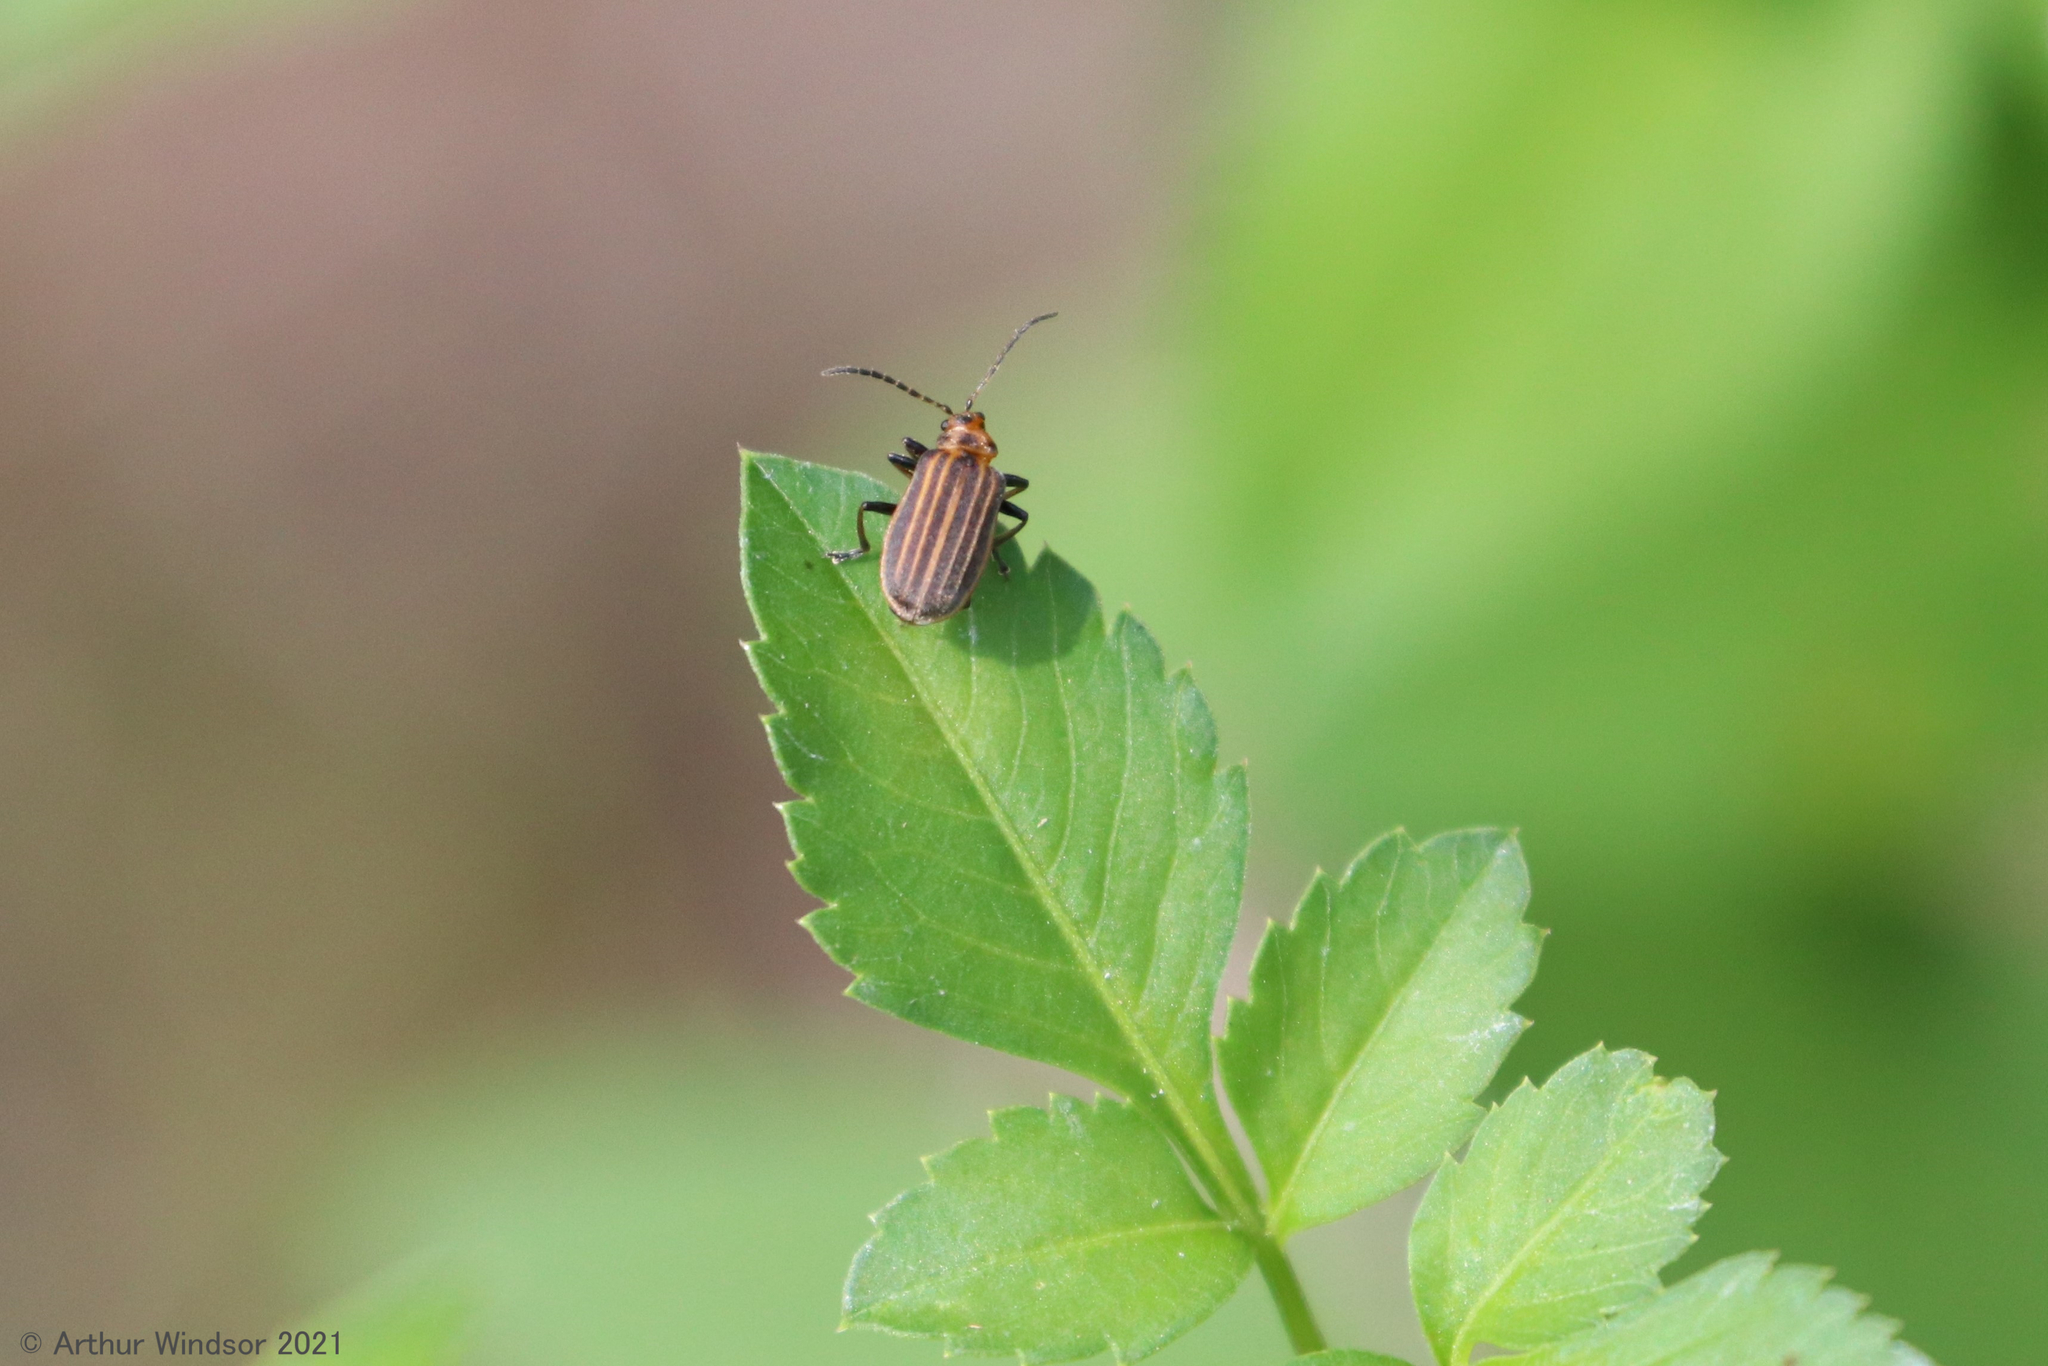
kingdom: Animalia
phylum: Arthropoda
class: Insecta
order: Coleoptera
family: Chrysomelidae
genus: Neolochmaea
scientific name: Neolochmaea dilatipennis
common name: Skeletonizing leaf beetle
